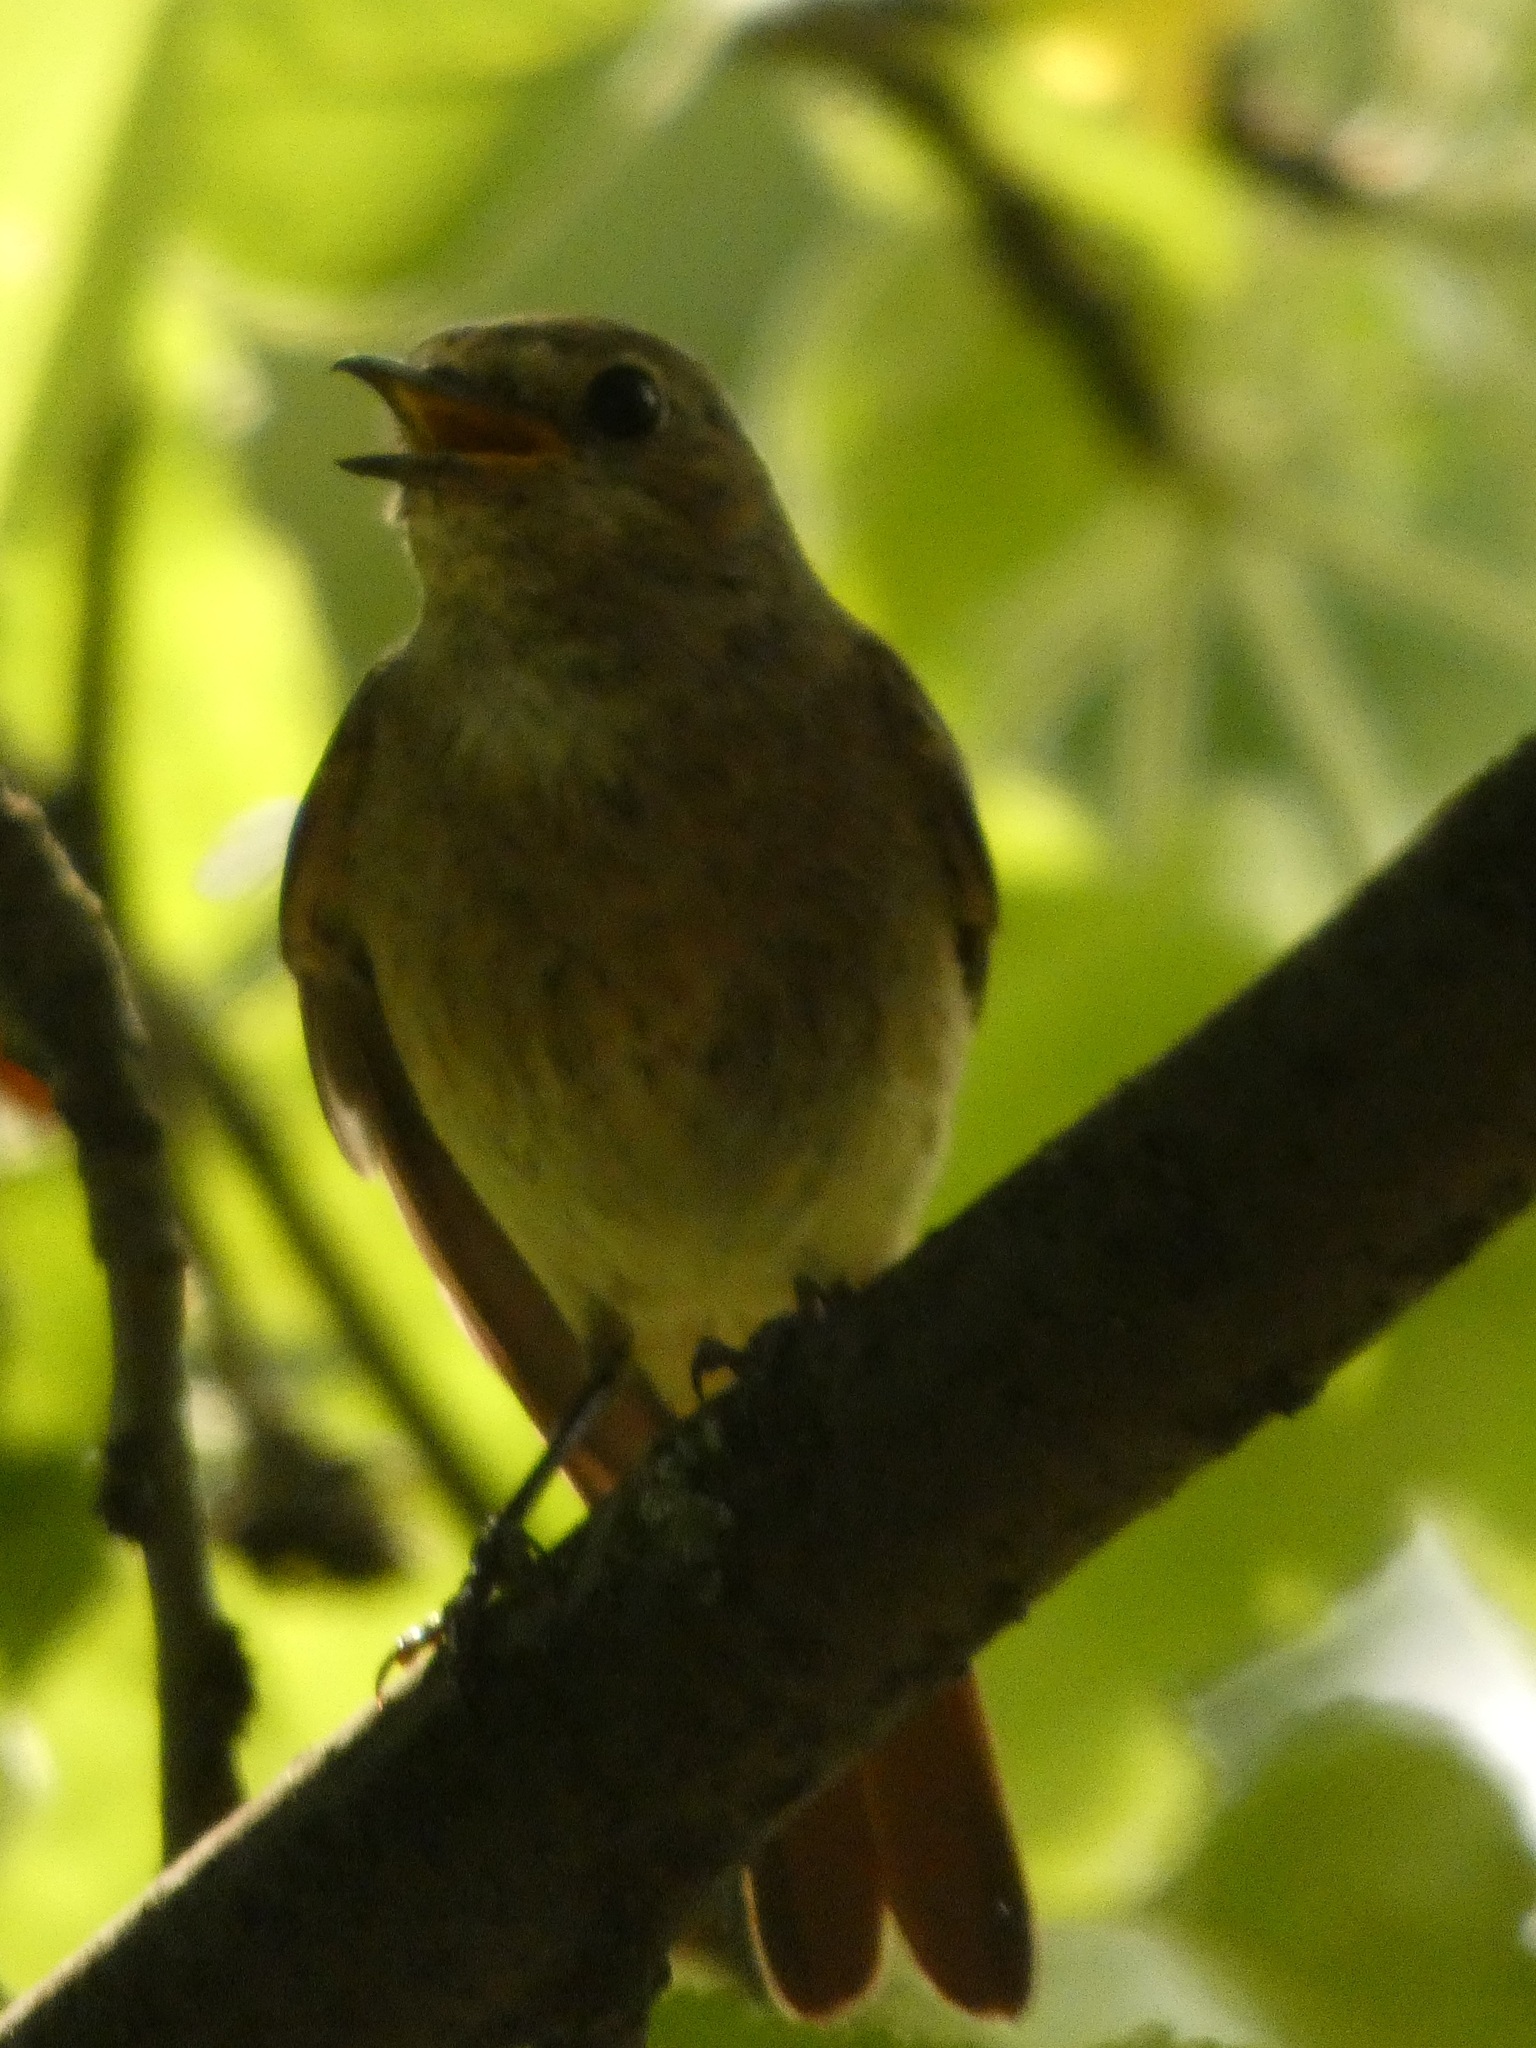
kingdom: Animalia
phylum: Chordata
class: Aves
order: Passeriformes
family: Muscicapidae
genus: Phoenicurus
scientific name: Phoenicurus phoenicurus
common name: Common redstart
